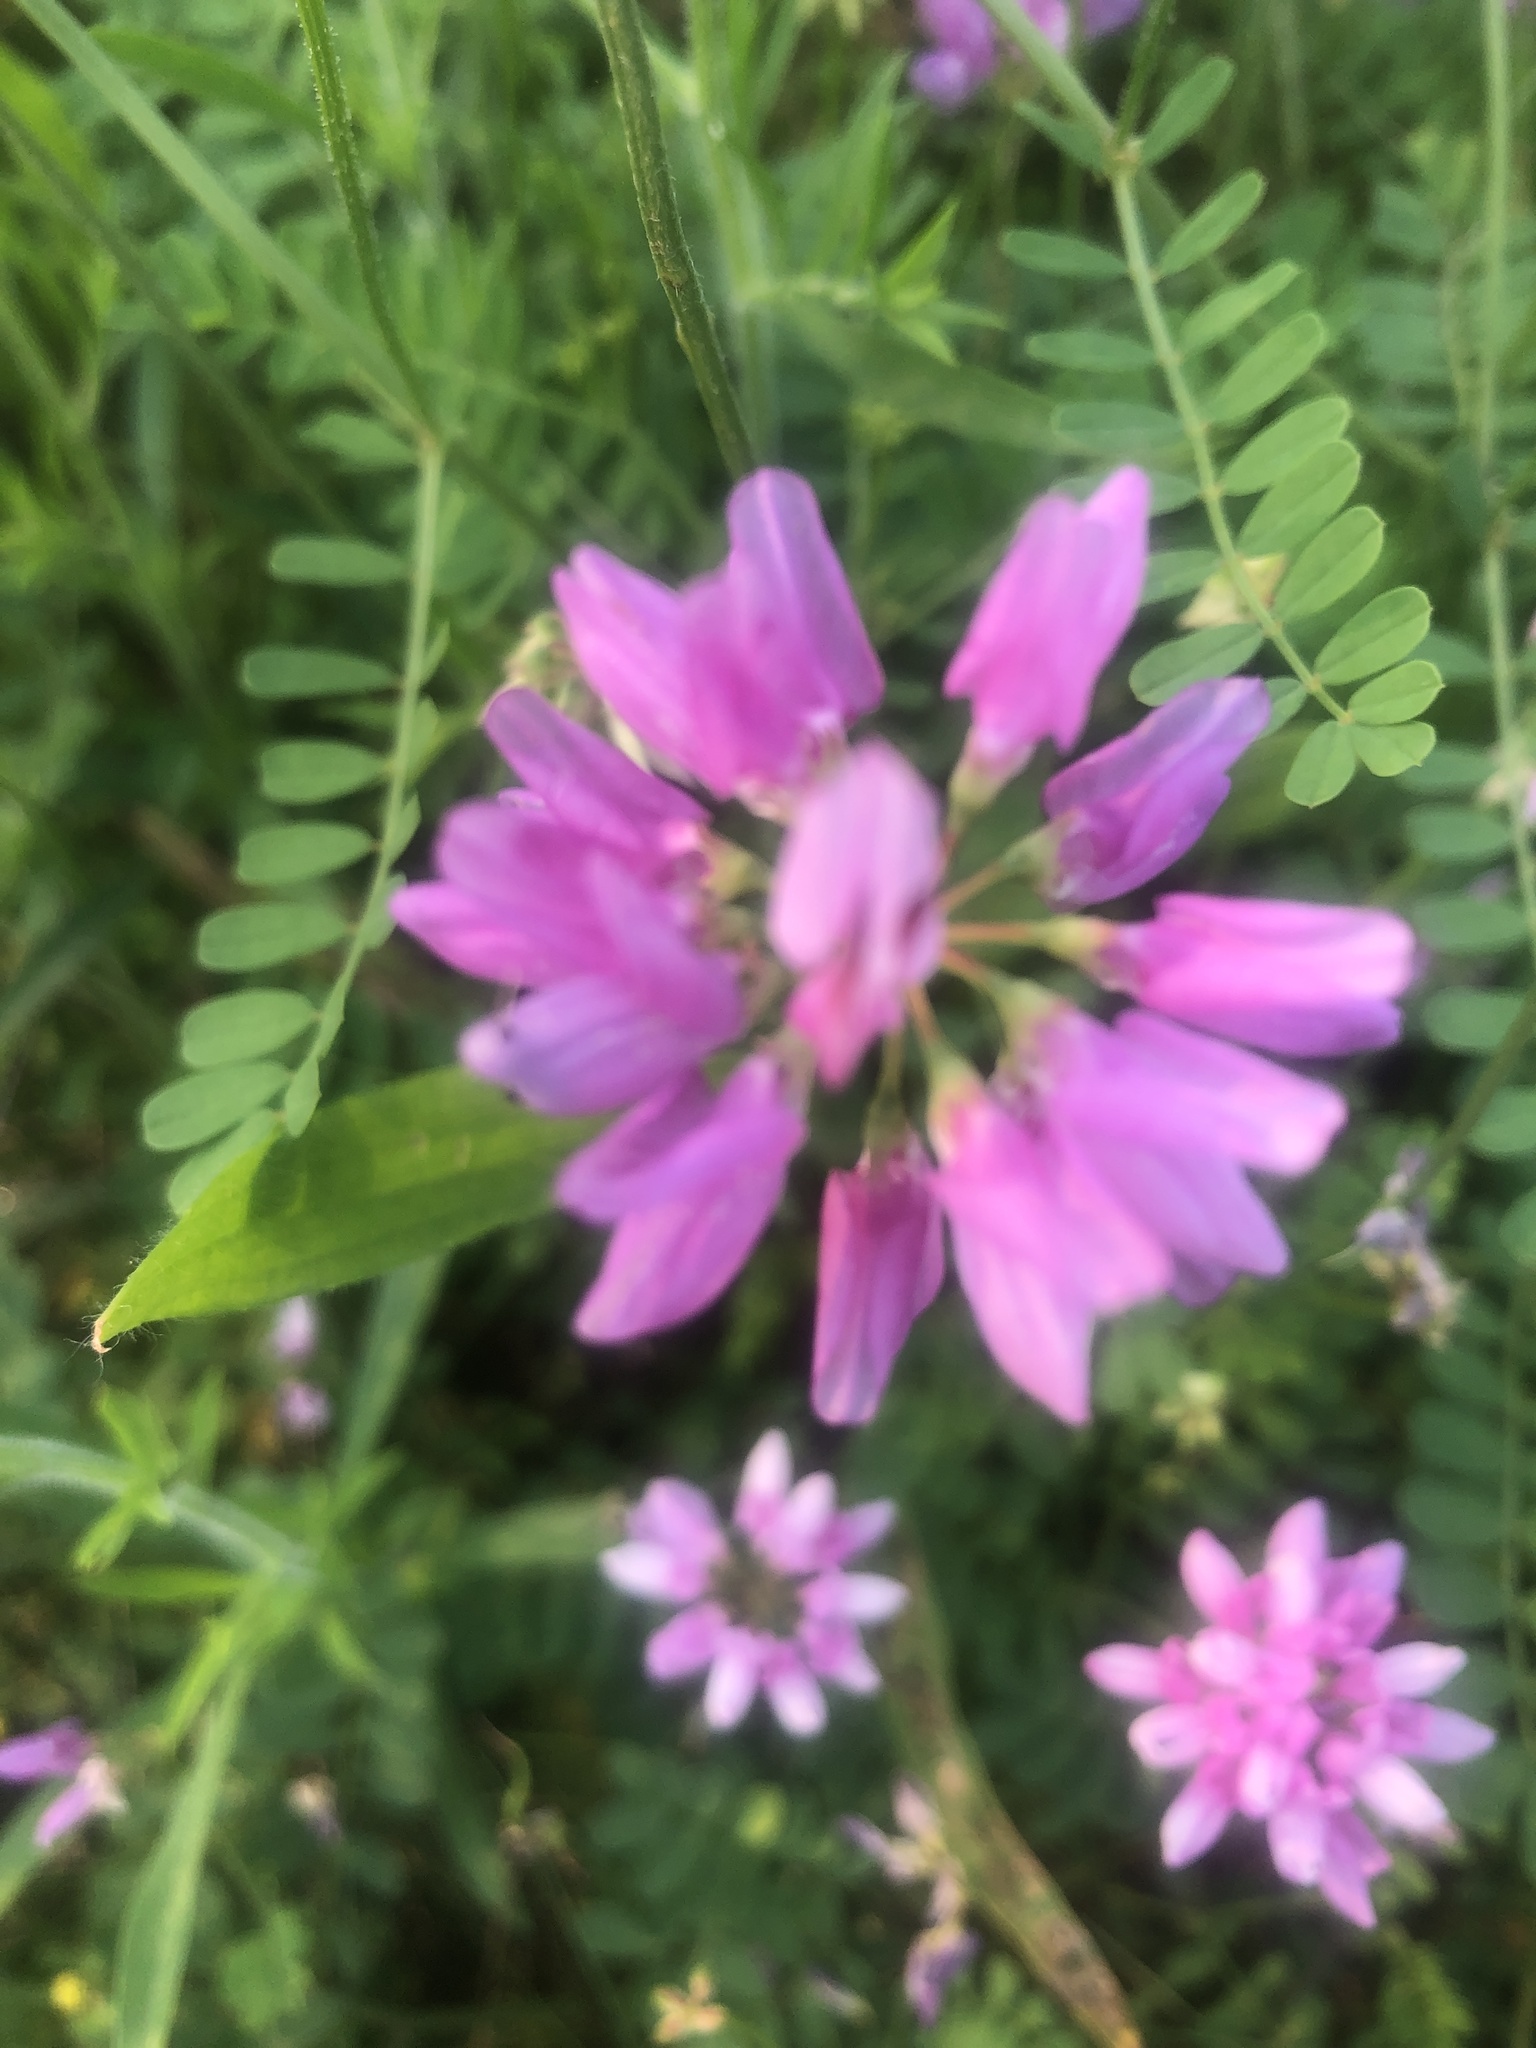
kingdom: Plantae
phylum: Tracheophyta
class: Magnoliopsida
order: Fabales
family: Fabaceae
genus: Coronilla
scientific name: Coronilla varia
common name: Crownvetch
